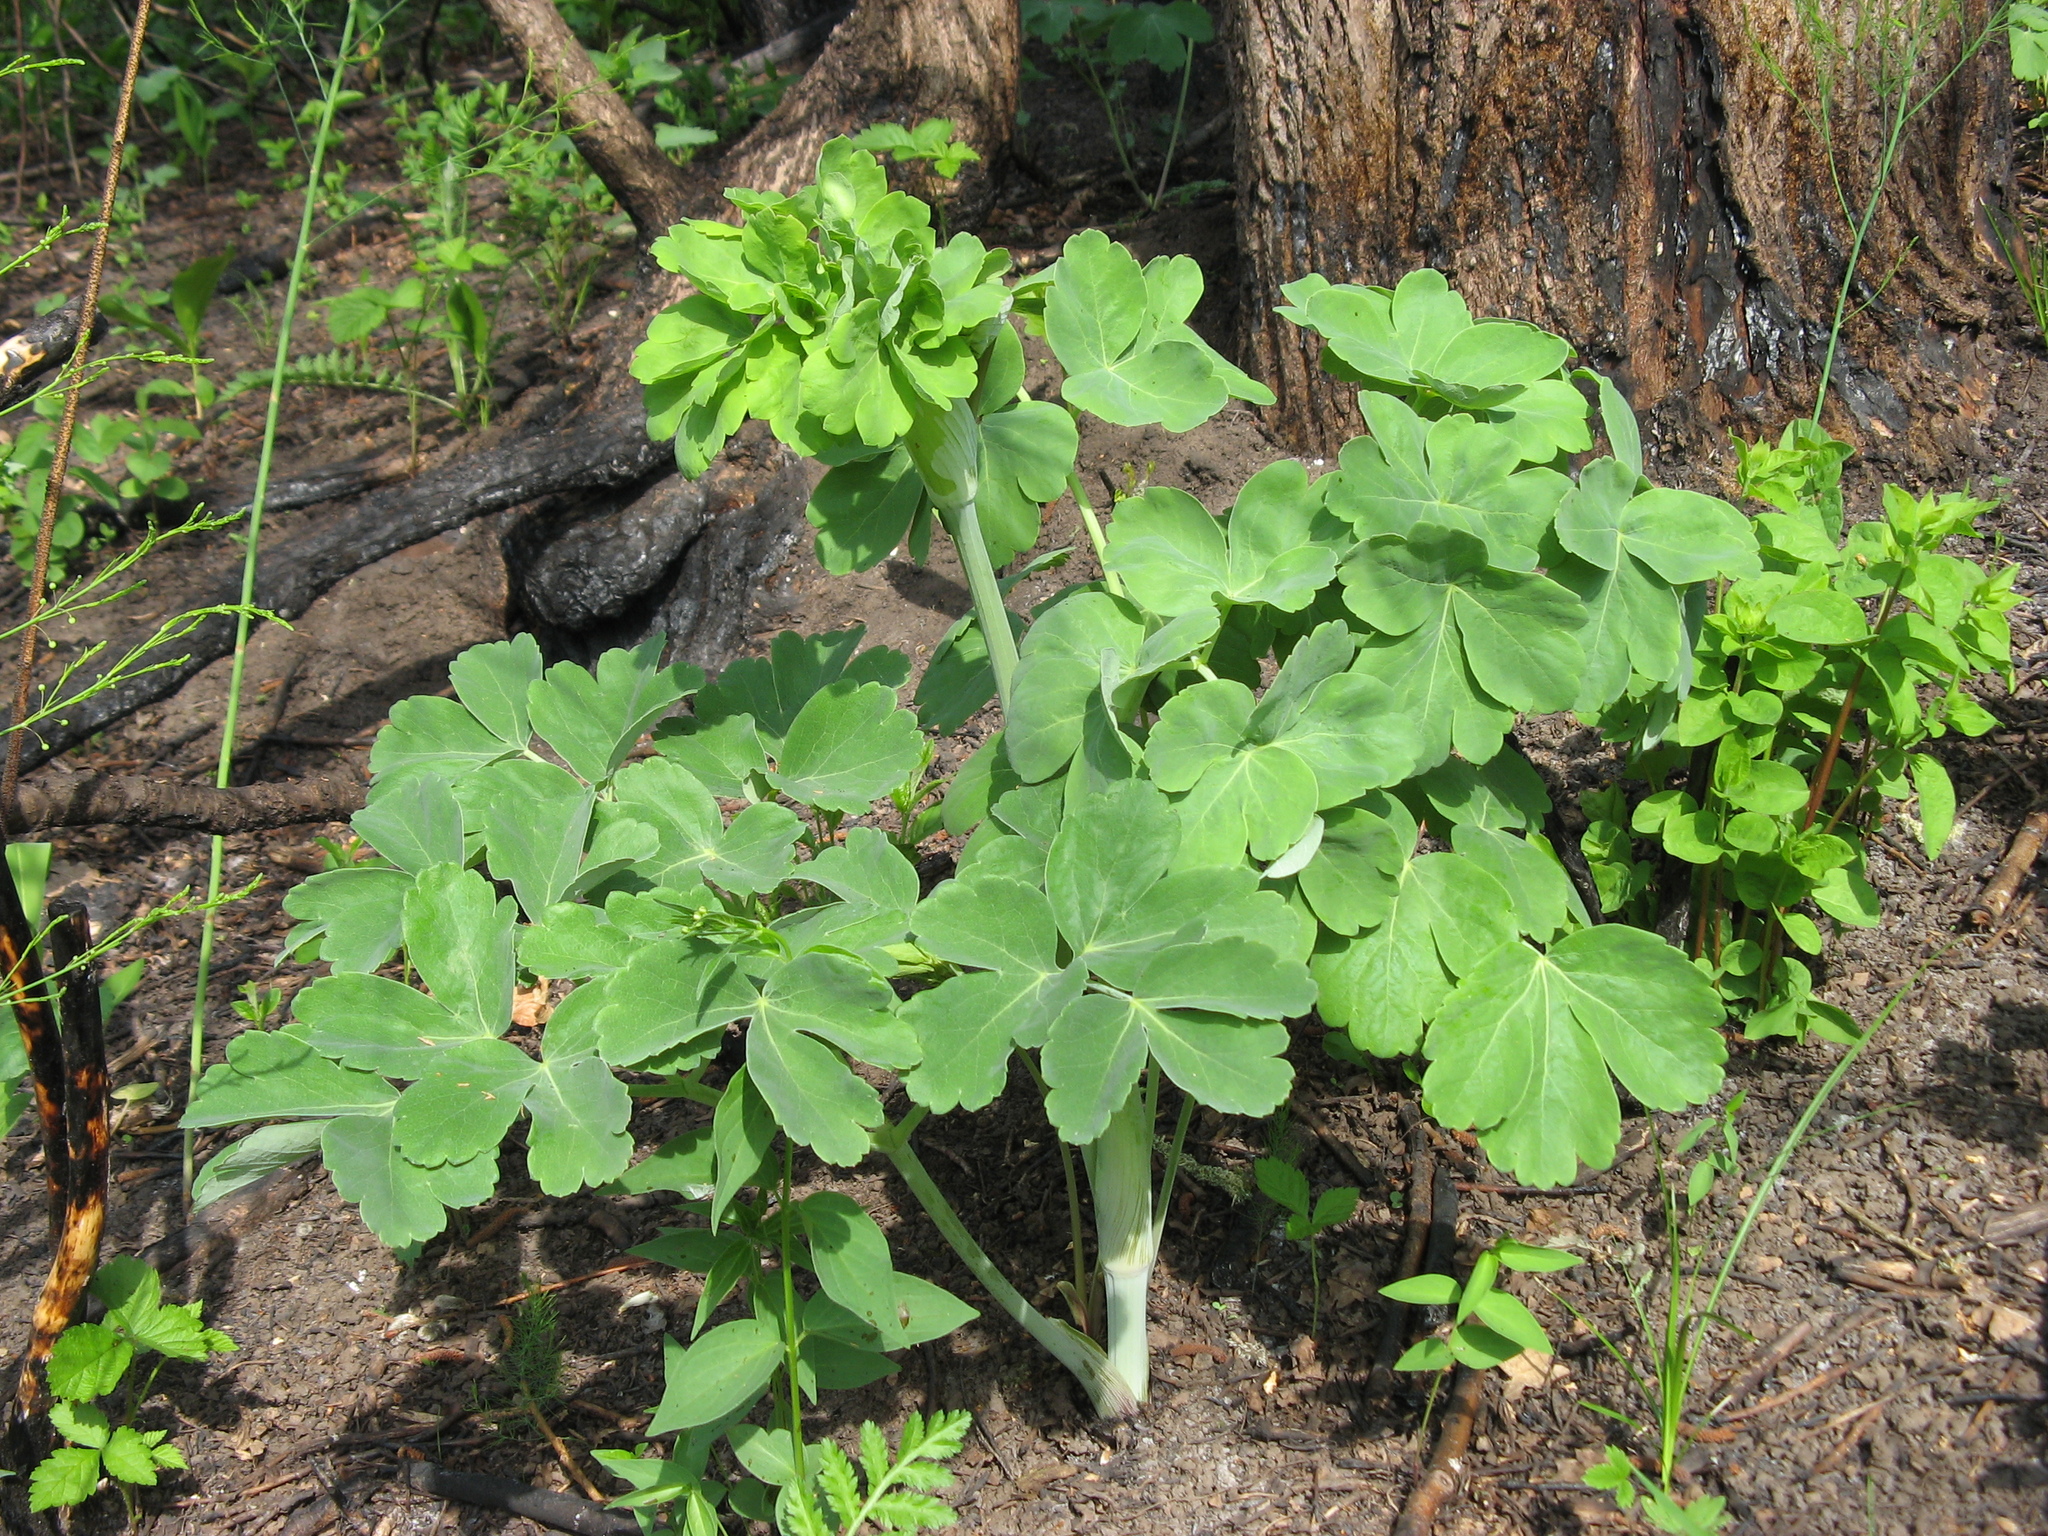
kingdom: Plantae
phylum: Tracheophyta
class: Magnoliopsida
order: Apiales
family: Apiaceae
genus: Laser
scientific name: Laser trilobum
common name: Laser
